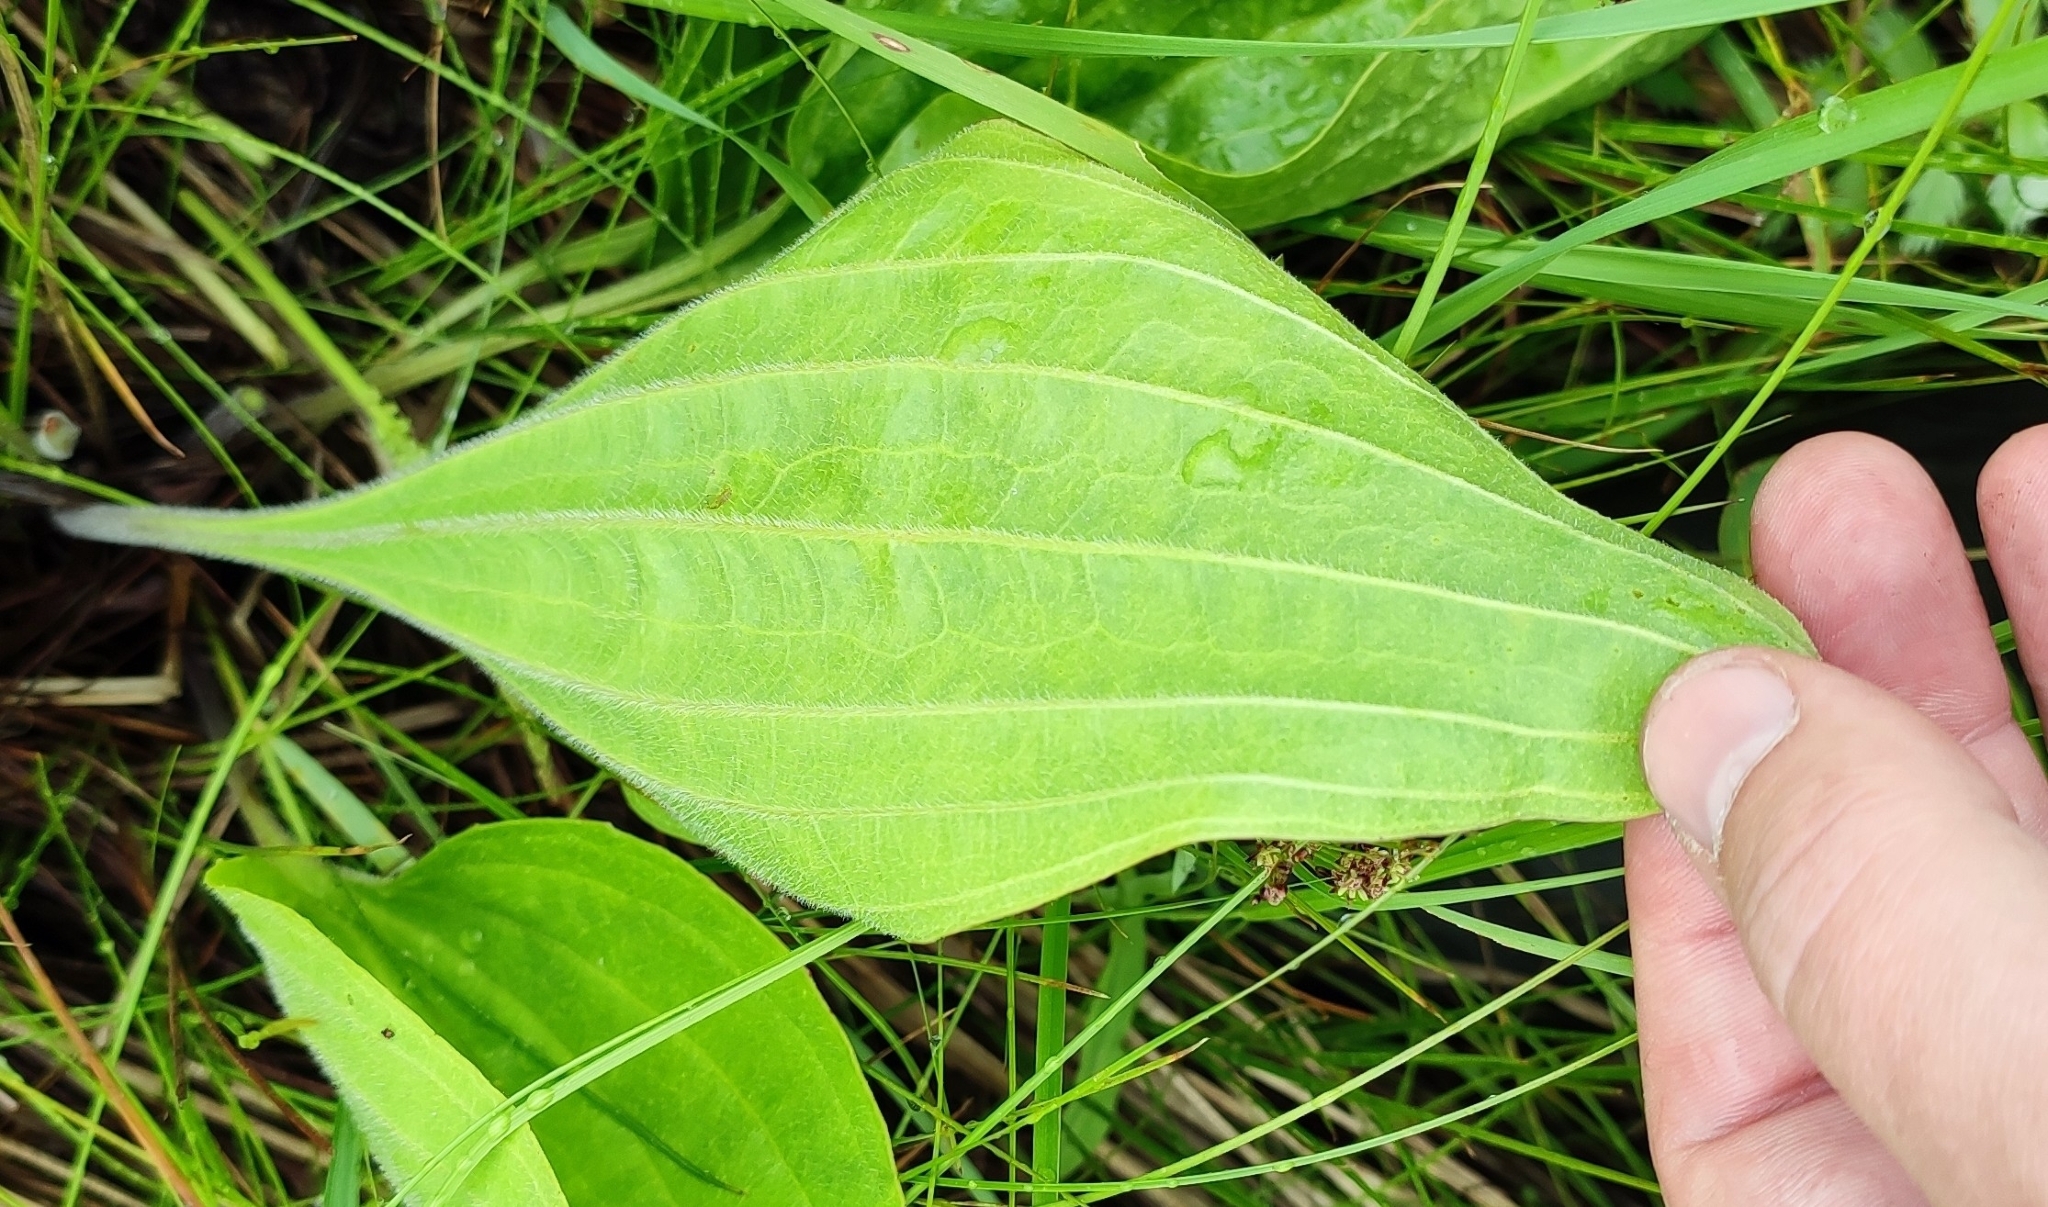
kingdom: Plantae
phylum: Tracheophyta
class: Magnoliopsida
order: Lamiales
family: Plantaginaceae
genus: Plantago
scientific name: Plantago cornuti
